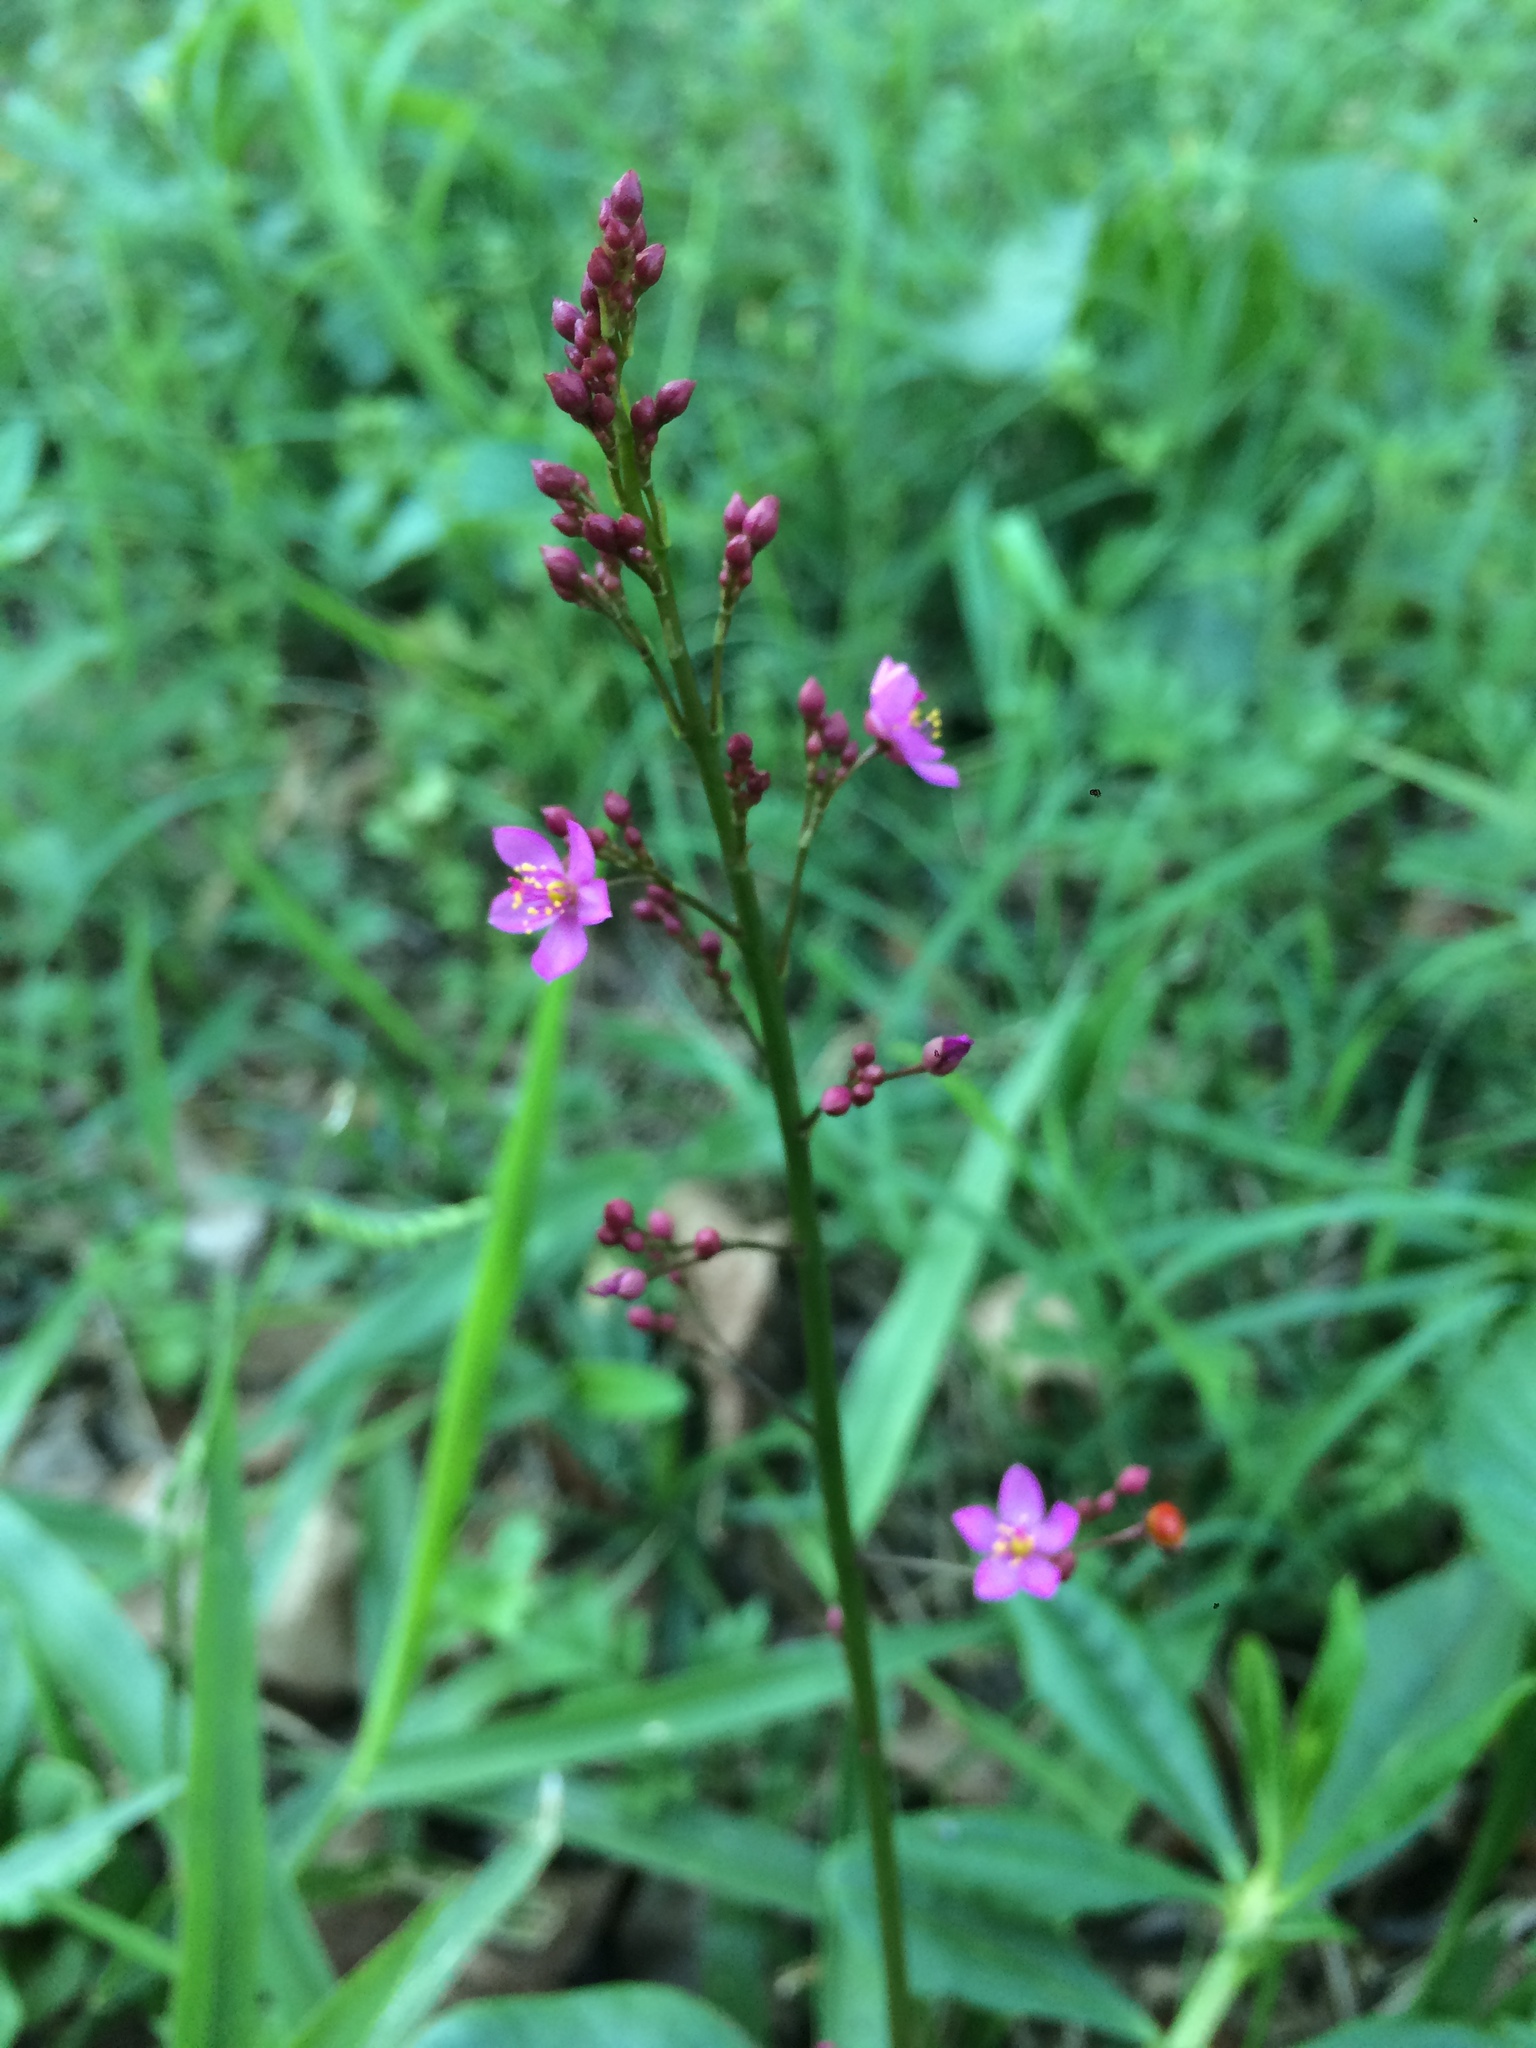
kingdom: Plantae
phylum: Tracheophyta
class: Magnoliopsida
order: Caryophyllales
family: Talinaceae
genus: Talinum
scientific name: Talinum paniculatum
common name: Jewels of opar
